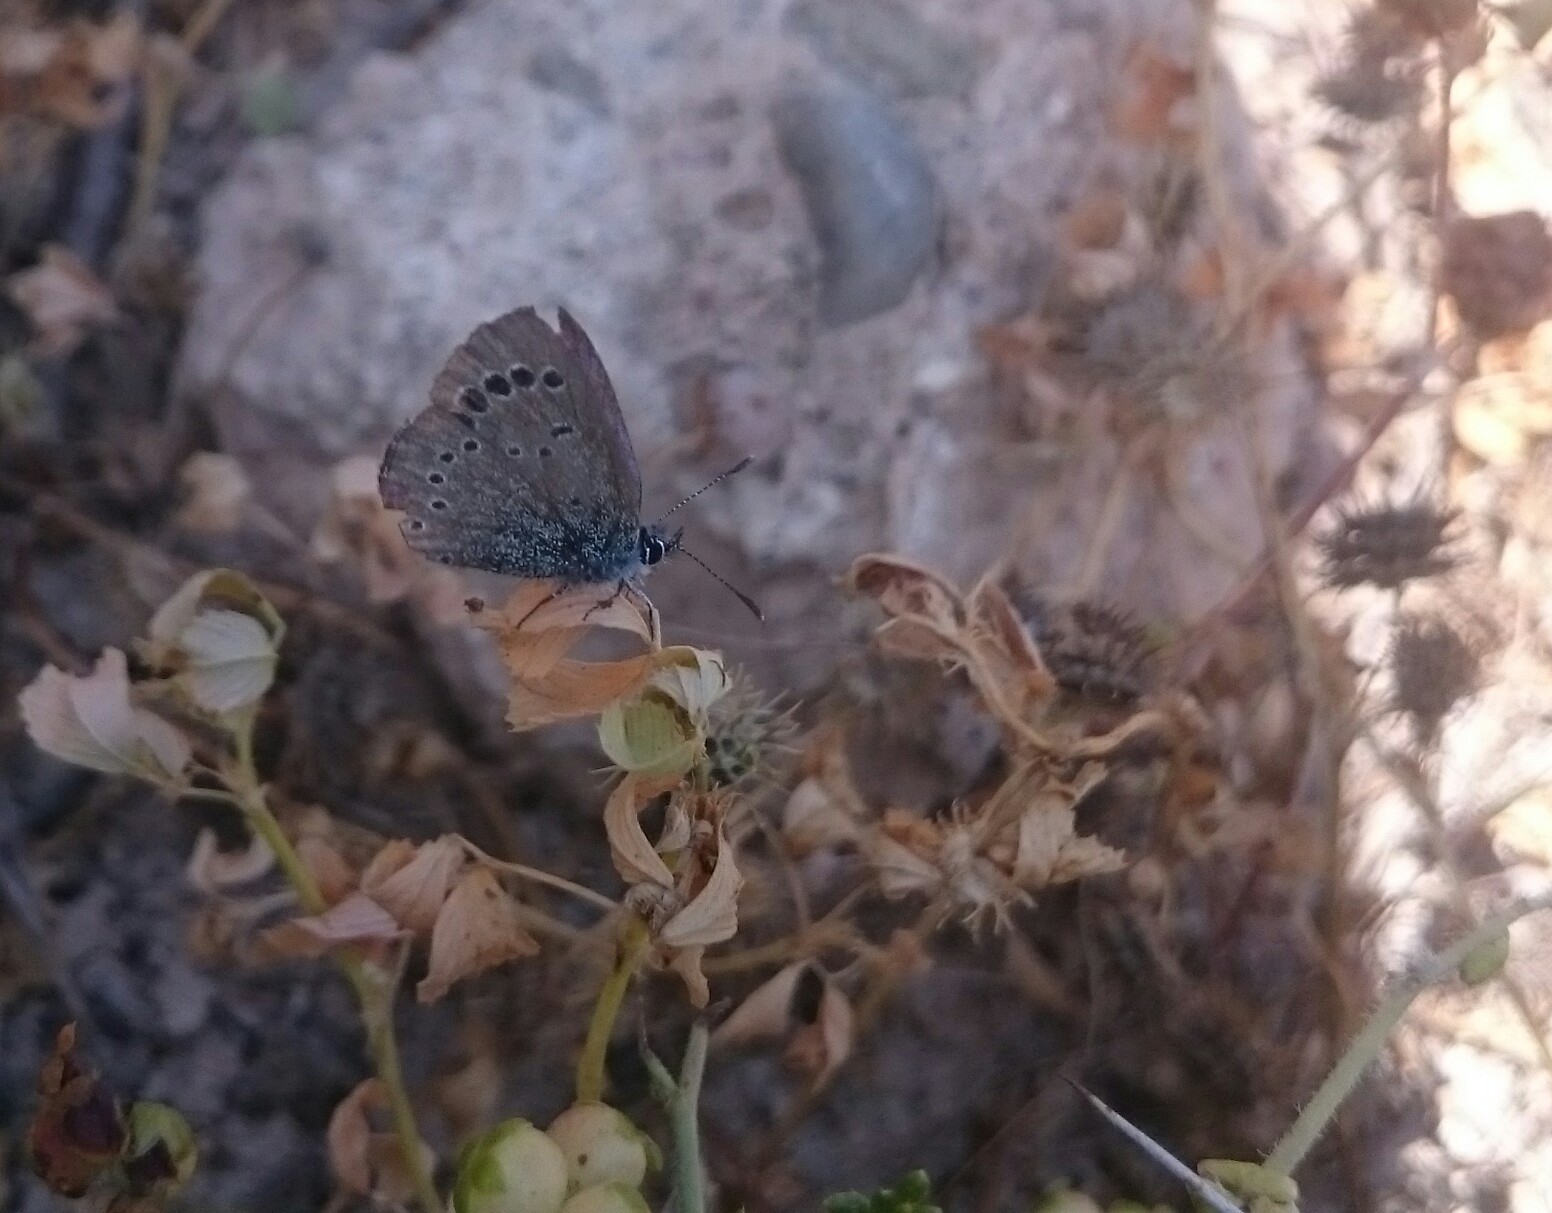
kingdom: Animalia
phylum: Arthropoda
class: Insecta
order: Lepidoptera
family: Lycaenidae
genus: Glaucopsyche
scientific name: Glaucopsyche paphos
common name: Paphos blue
